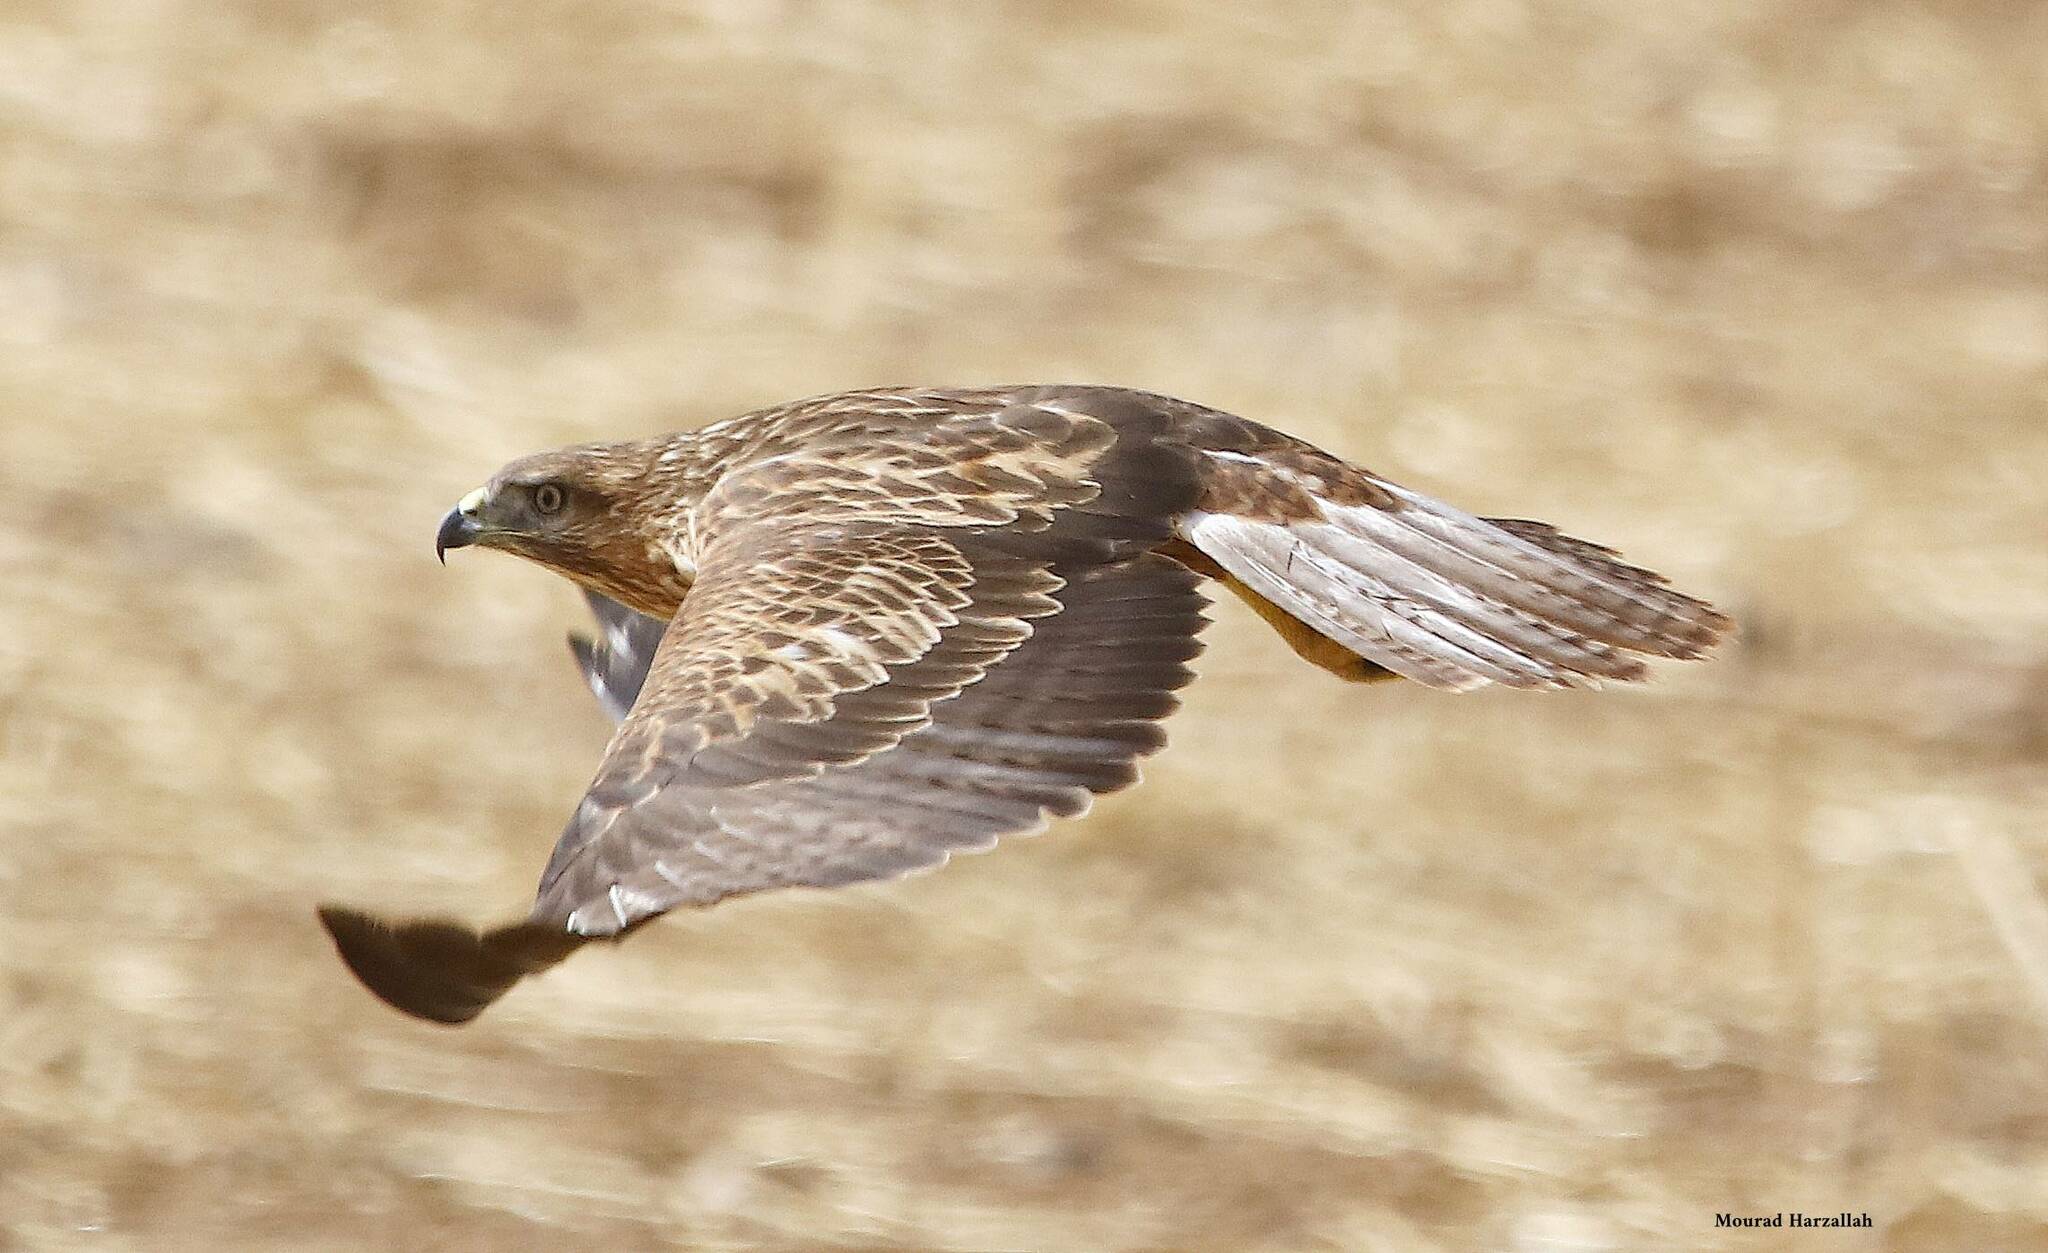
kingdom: Animalia
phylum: Chordata
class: Aves
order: Accipitriformes
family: Accipitridae
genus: Buteo
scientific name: Buteo rufinus
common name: Long-legged buzzard
